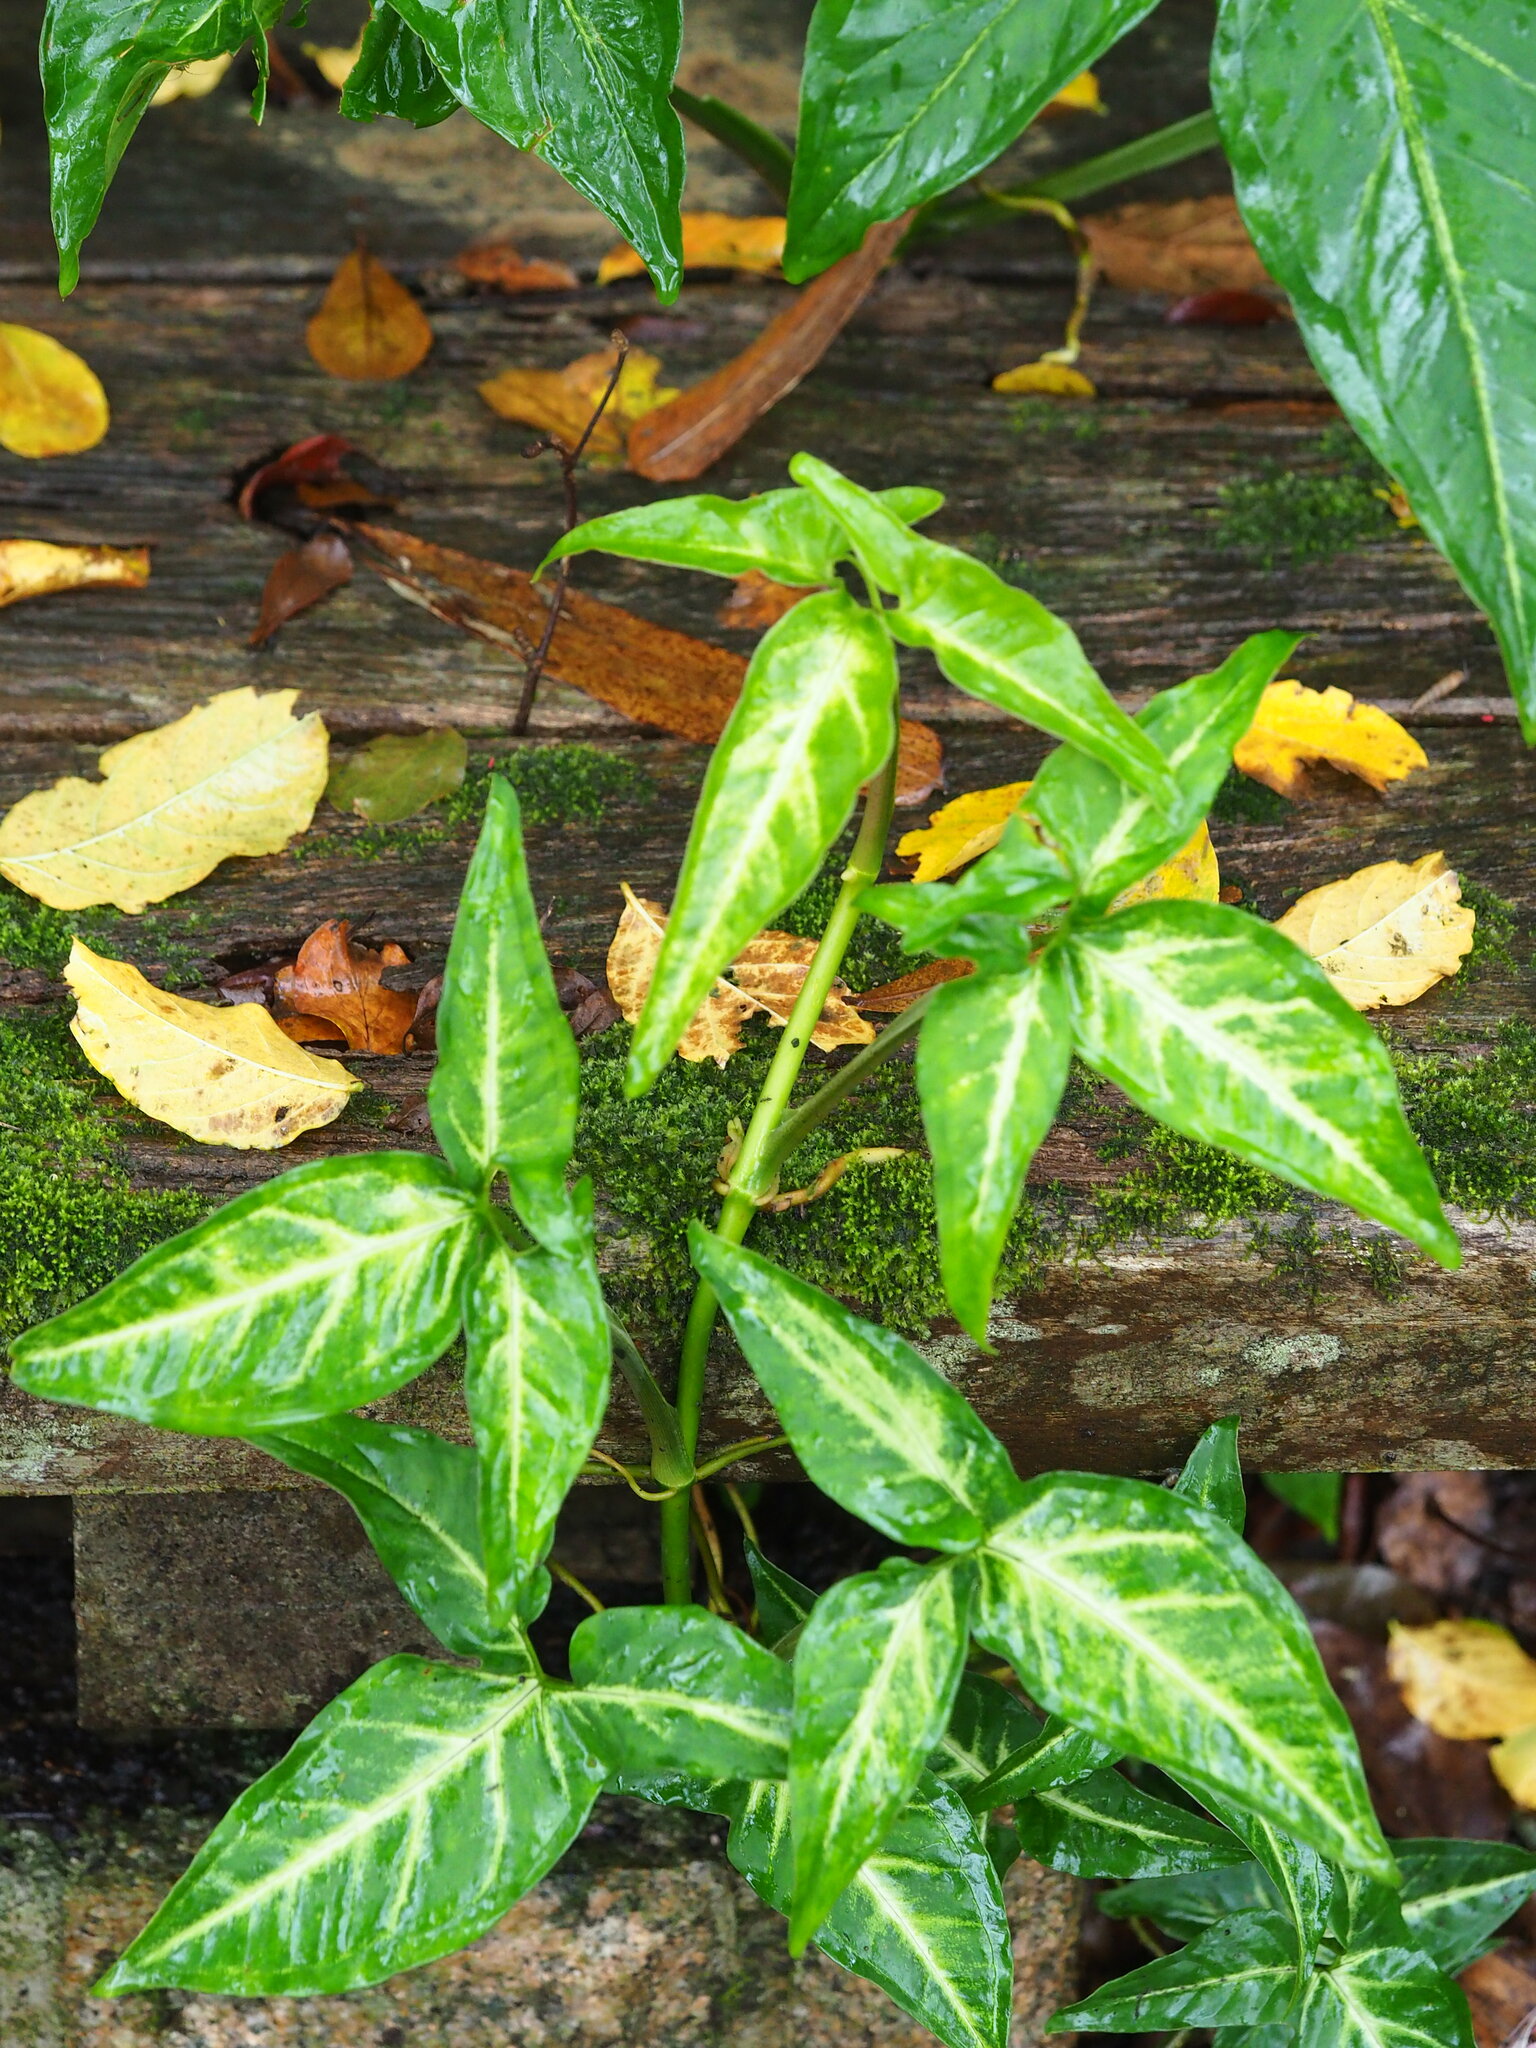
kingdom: Plantae
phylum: Tracheophyta
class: Liliopsida
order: Alismatales
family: Araceae
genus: Syngonium
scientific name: Syngonium angustatum
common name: Fivefingers
